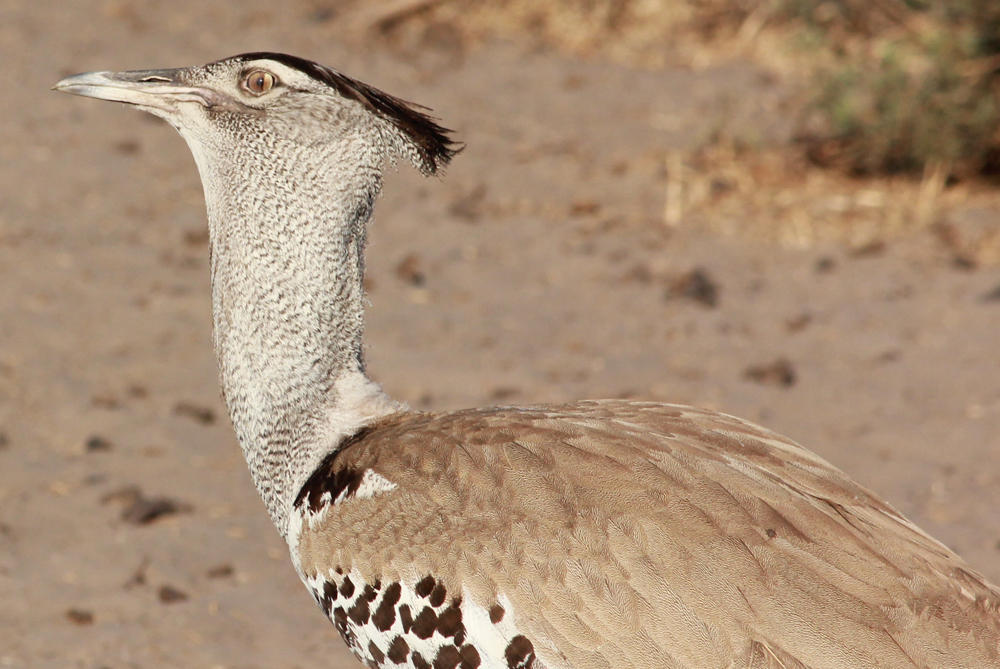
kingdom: Animalia
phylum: Chordata
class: Aves
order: Otidiformes
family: Otididae
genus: Ardeotis
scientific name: Ardeotis kori
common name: Kori bustard
